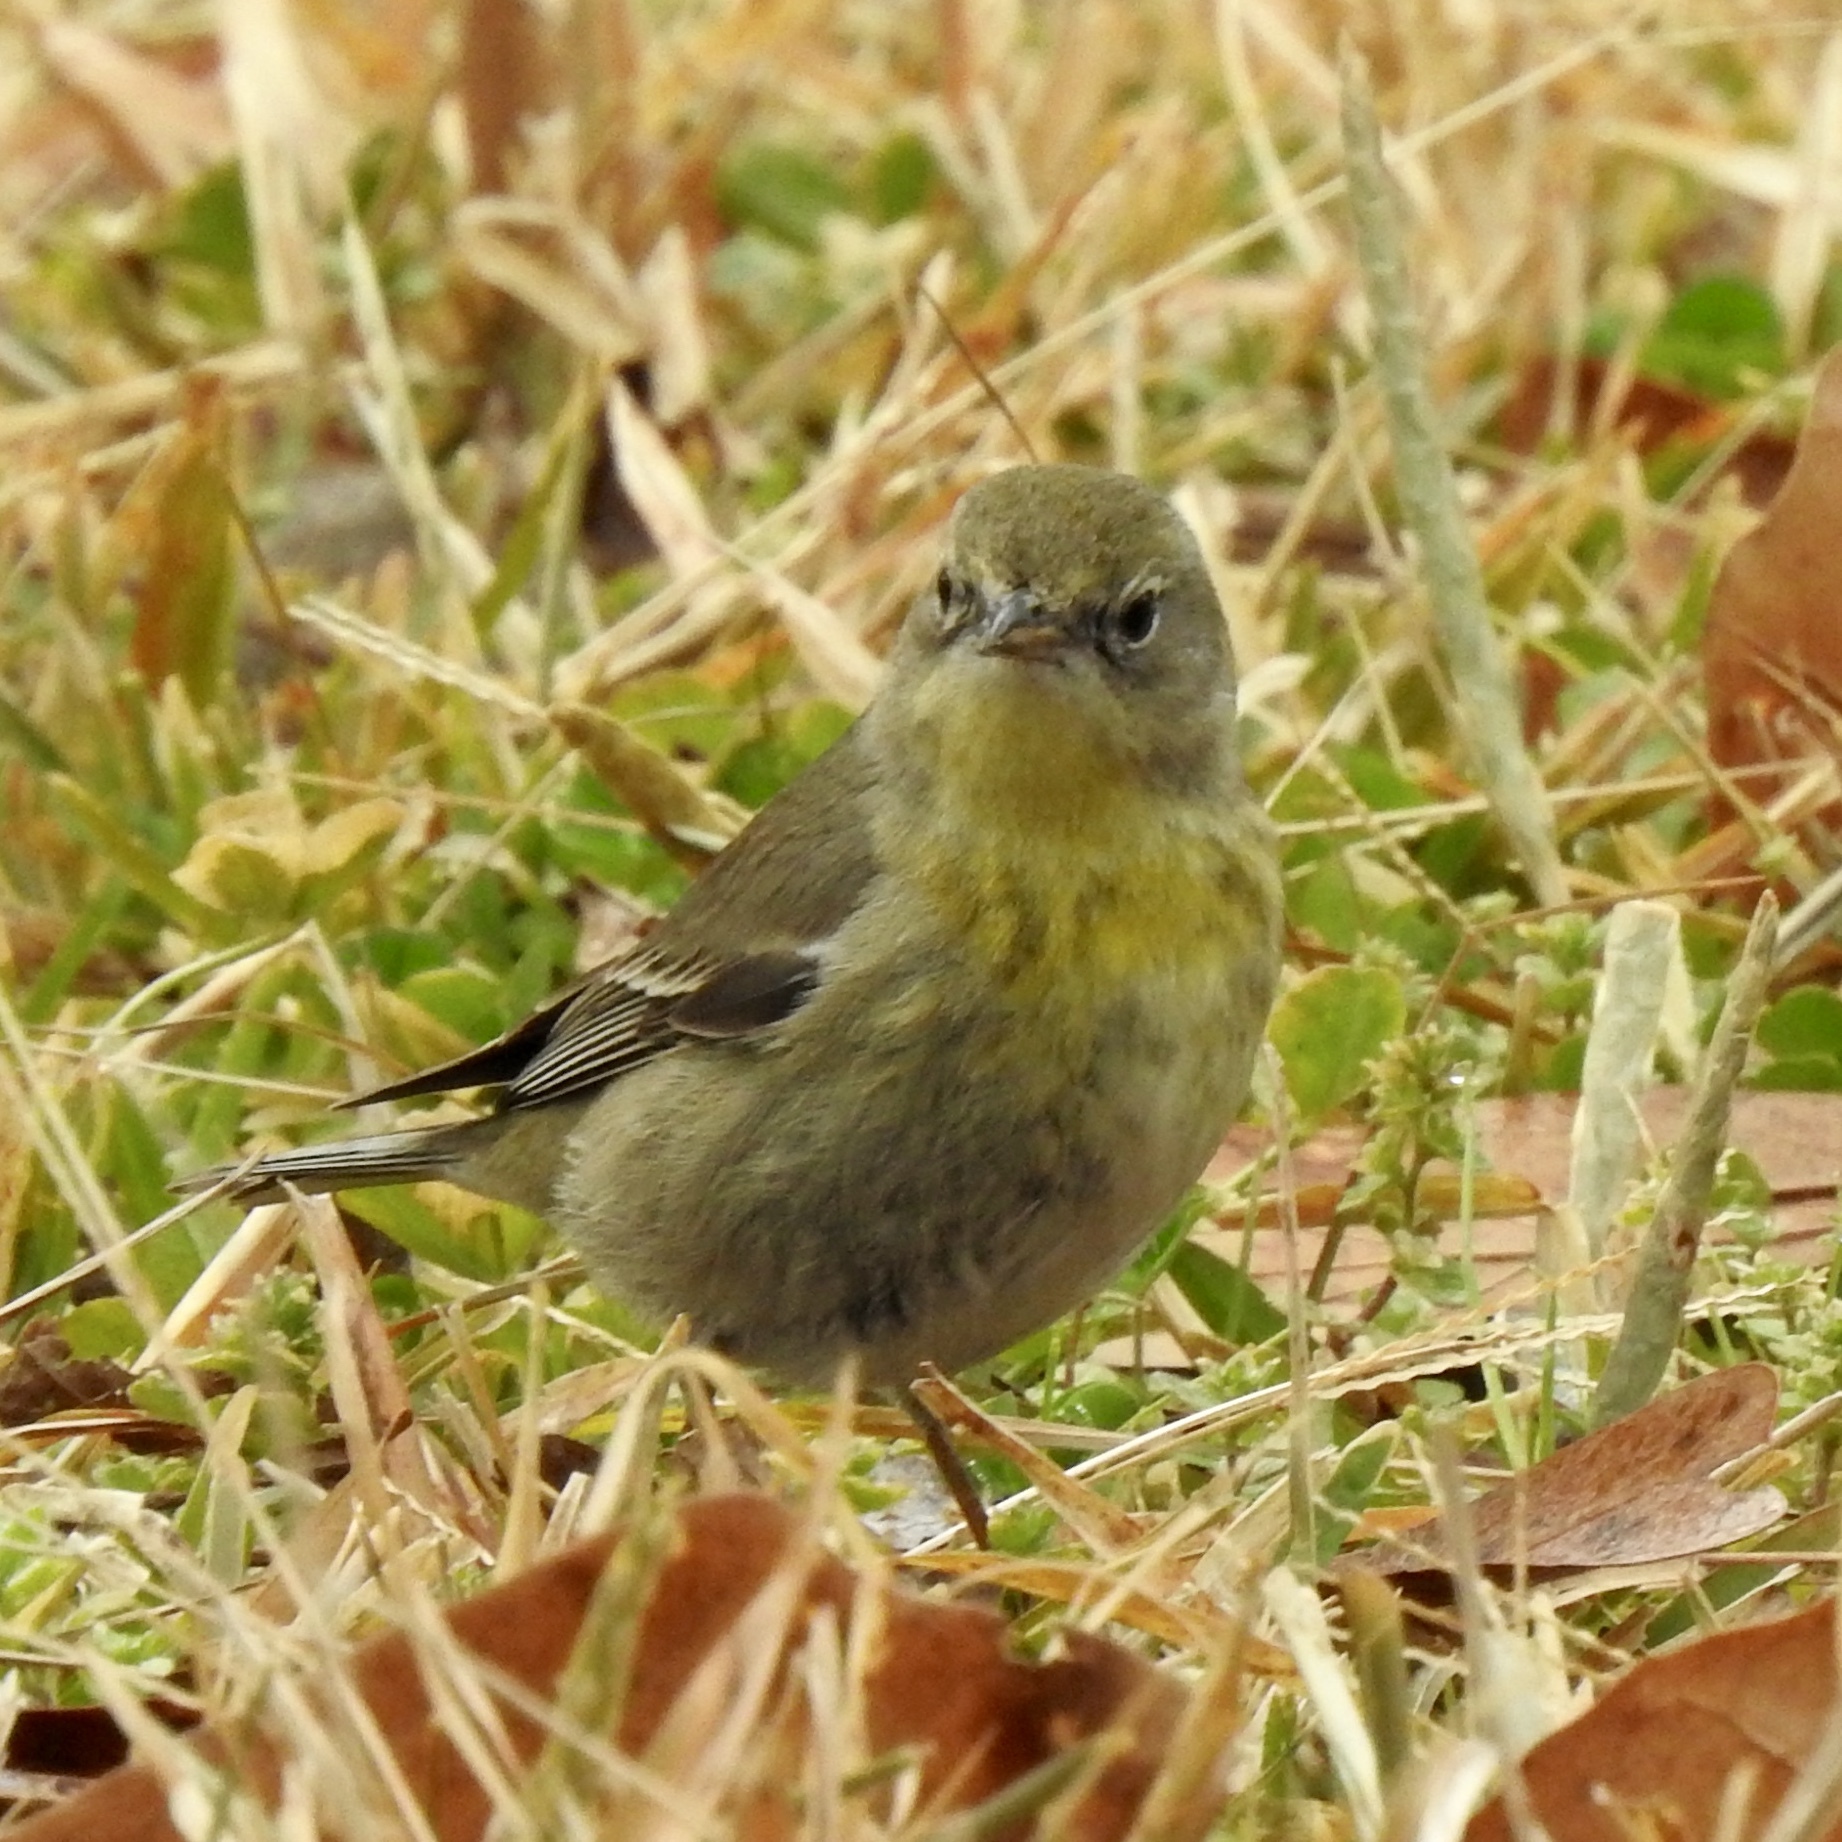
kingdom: Animalia
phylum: Chordata
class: Aves
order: Passeriformes
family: Parulidae
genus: Setophaga
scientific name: Setophaga pinus
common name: Pine warbler
